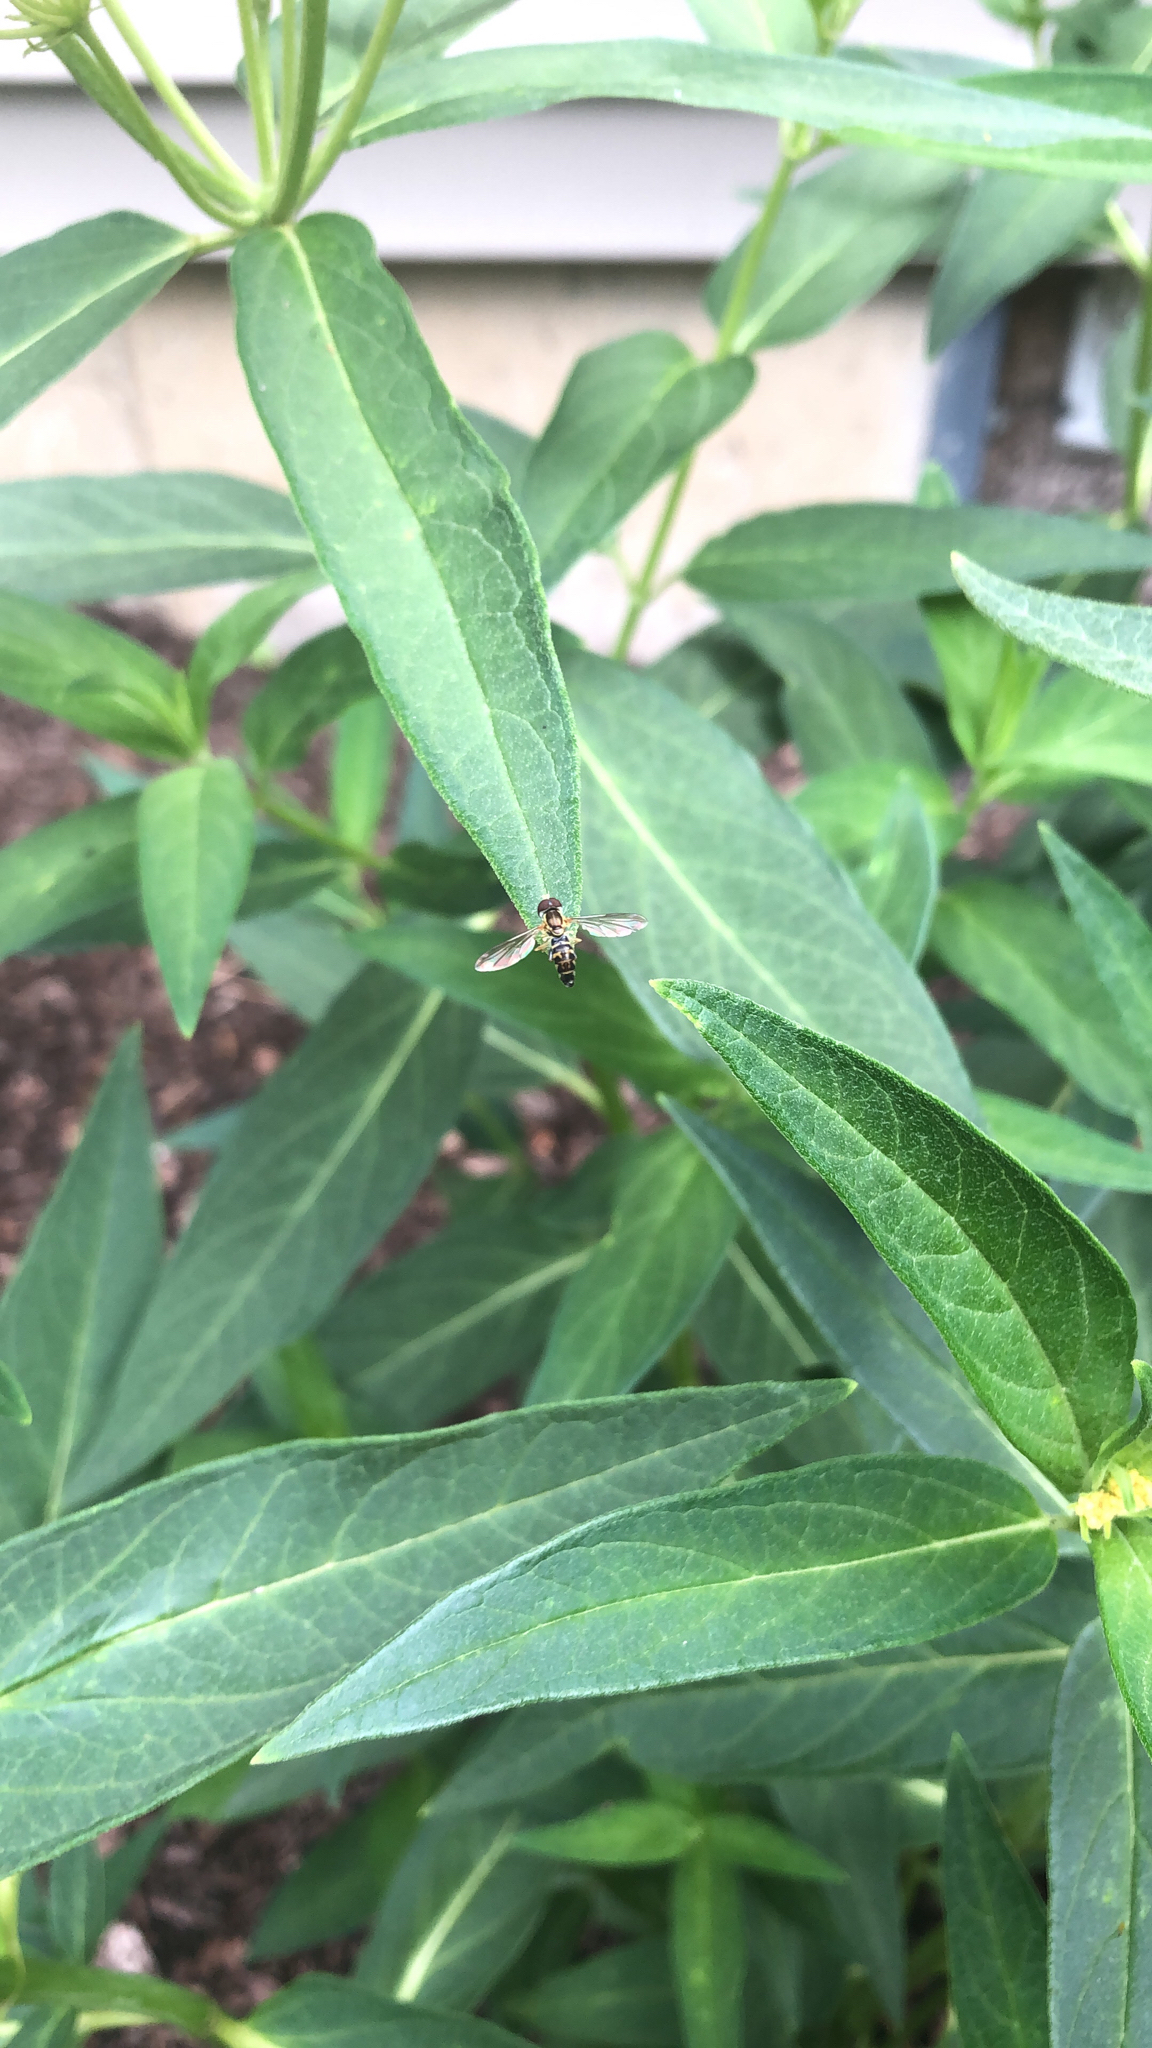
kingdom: Animalia
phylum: Arthropoda
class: Insecta
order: Diptera
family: Syrphidae
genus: Toxomerus
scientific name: Toxomerus geminatus
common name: Eastern calligrapher
